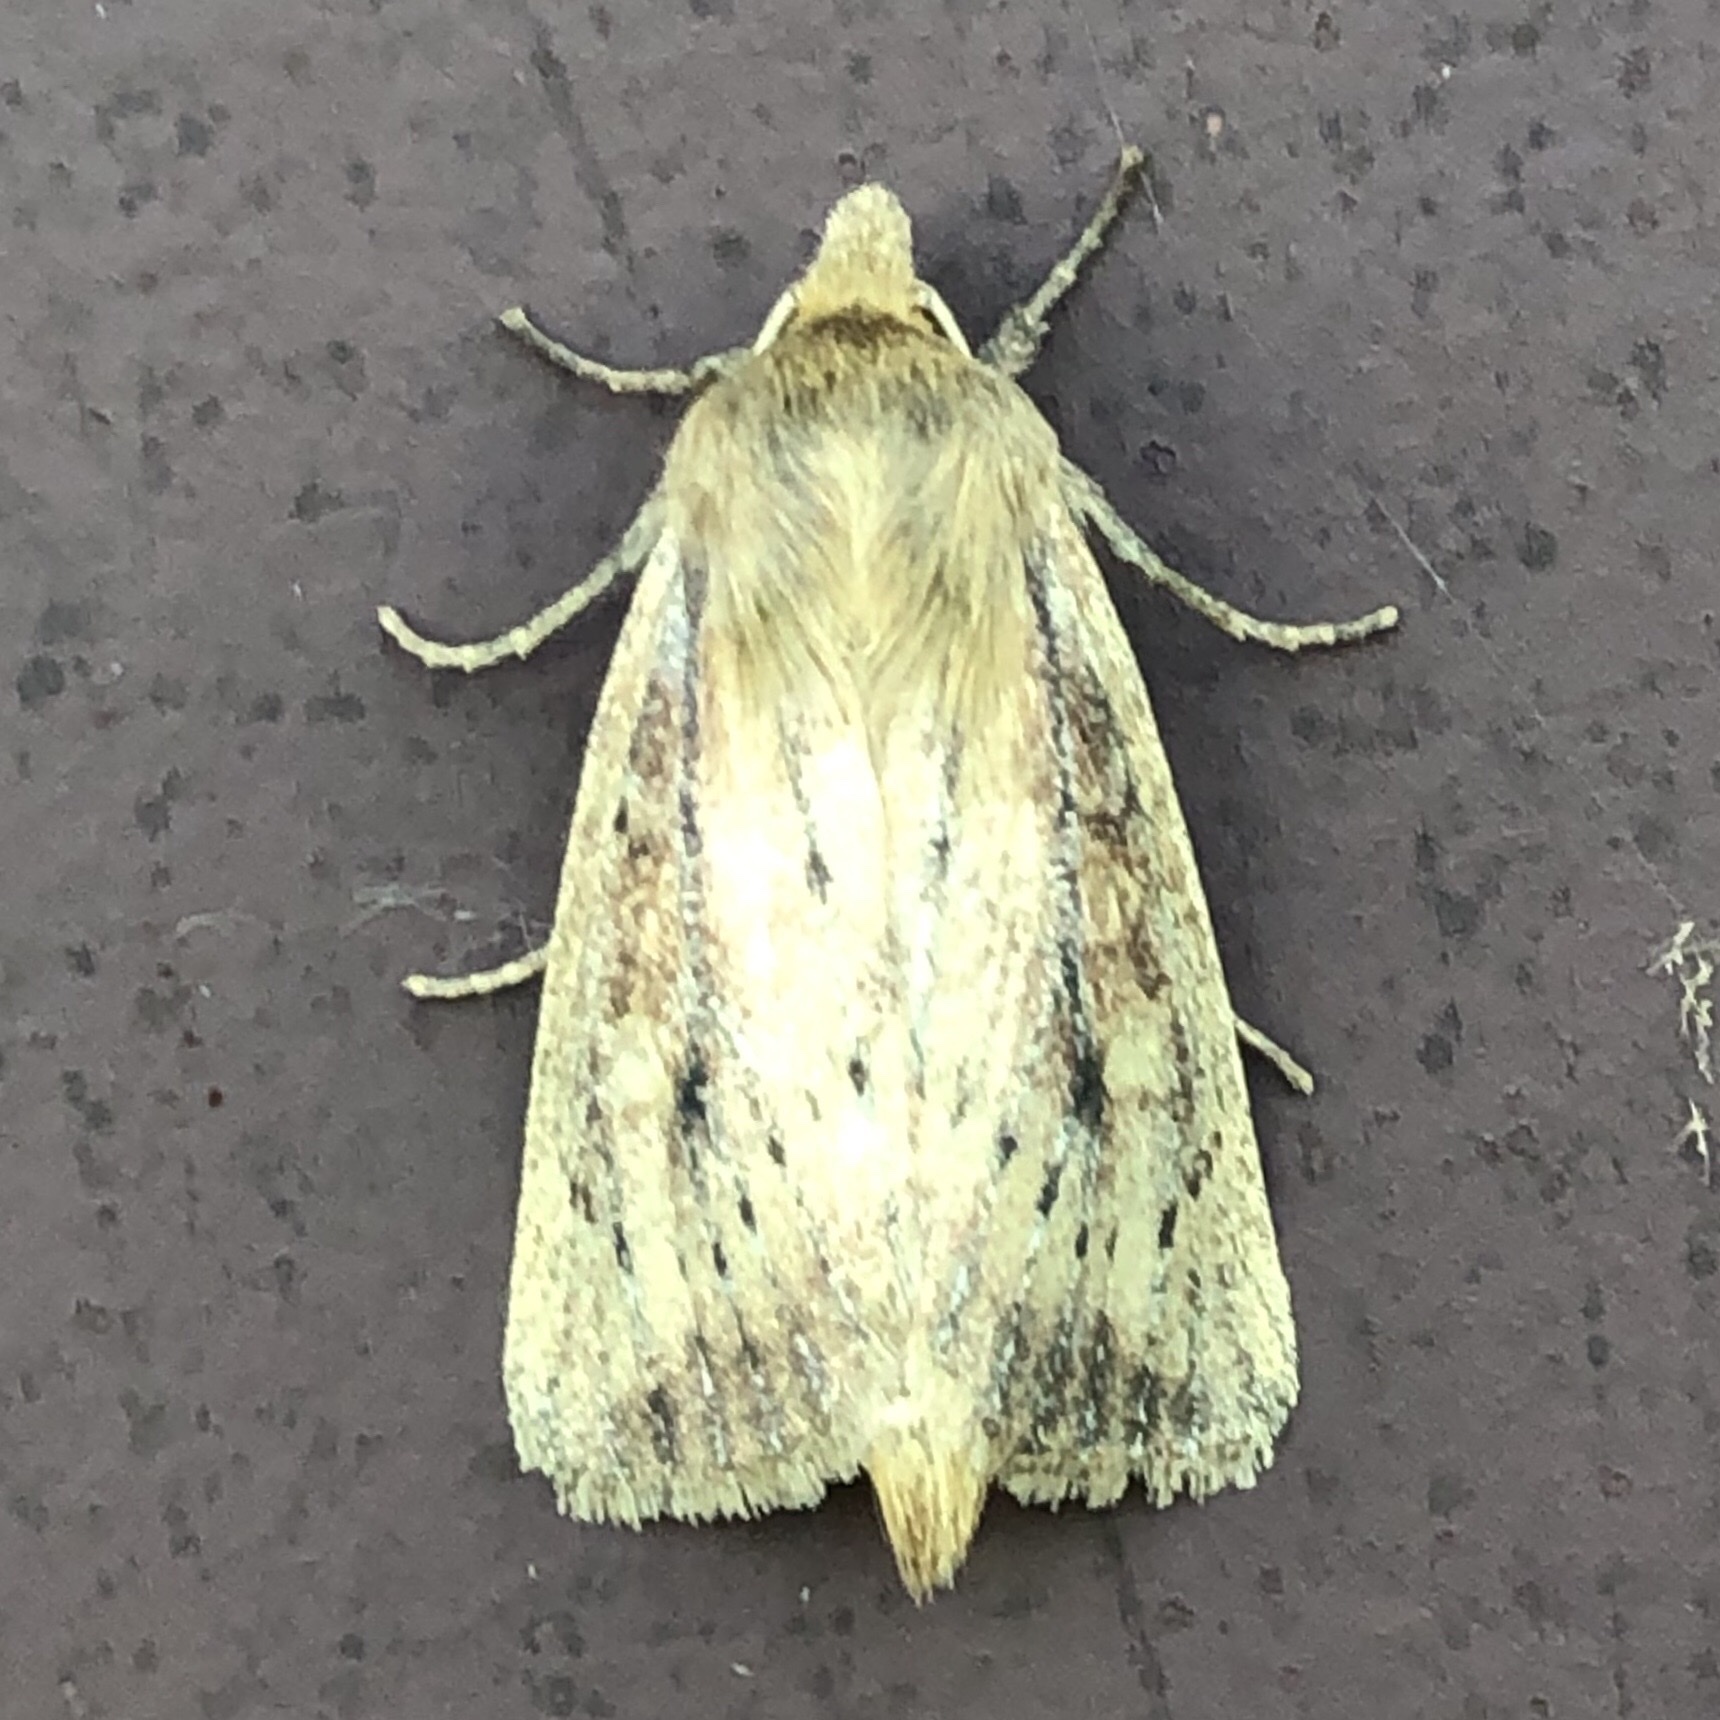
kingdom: Animalia
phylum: Arthropoda
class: Insecta
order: Lepidoptera
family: Noctuidae
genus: Globia
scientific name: Globia subflava
